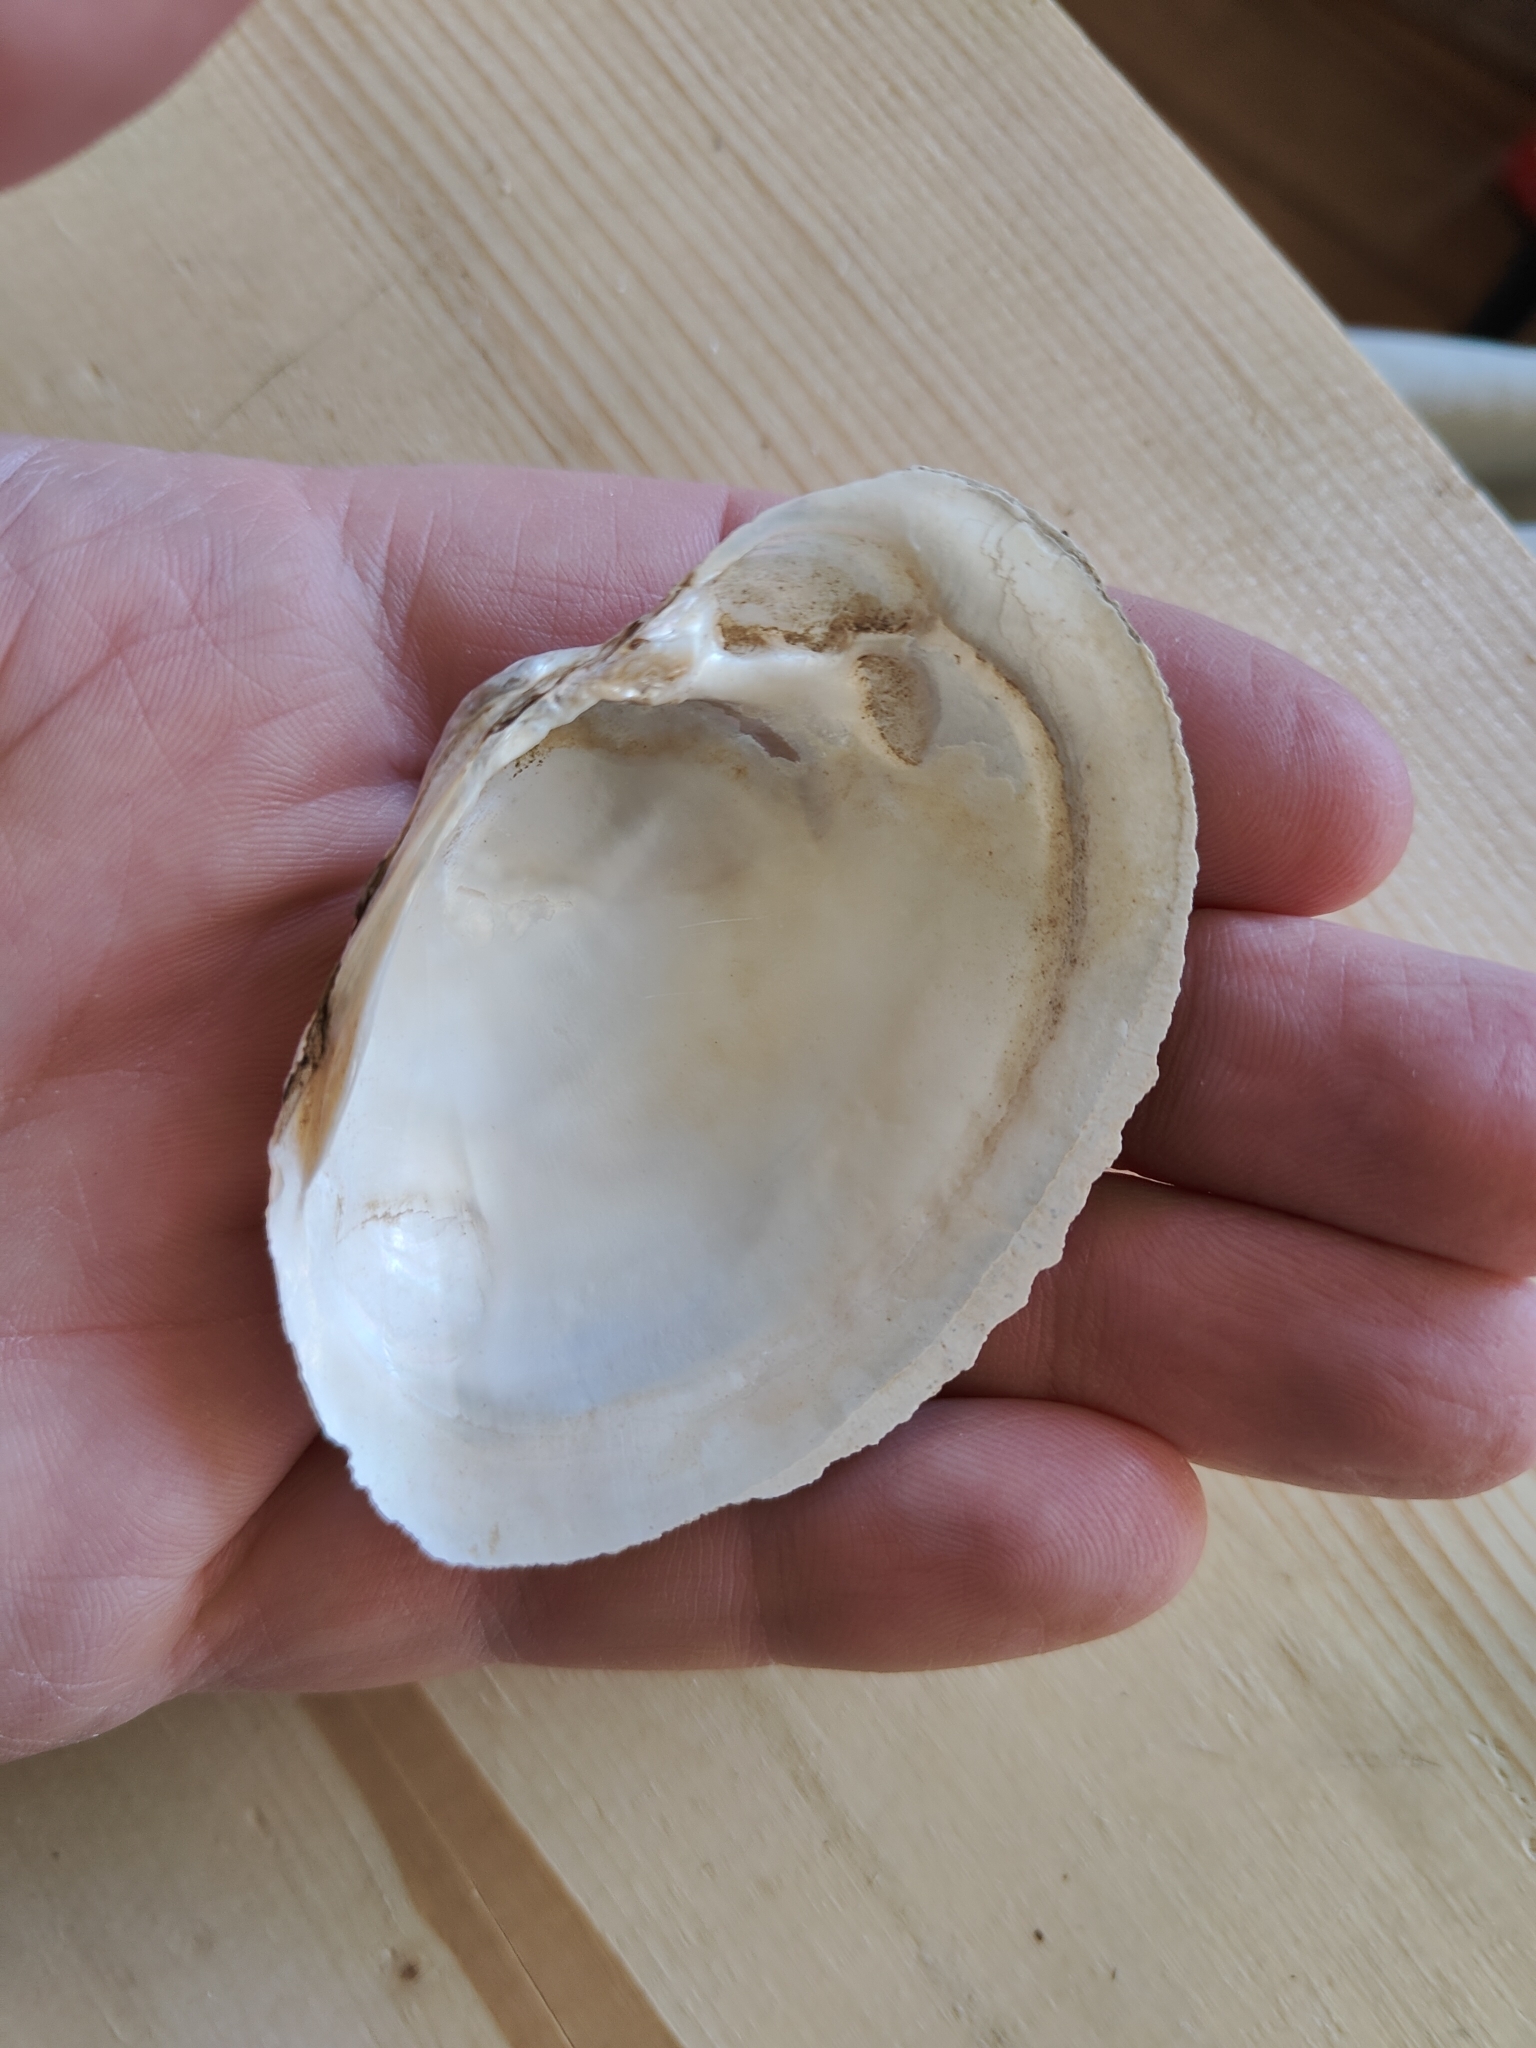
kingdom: Animalia
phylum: Mollusca
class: Bivalvia
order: Unionida
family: Unionidae
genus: Lampsilis
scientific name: Lampsilis cardium
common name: Plain pocketbook
